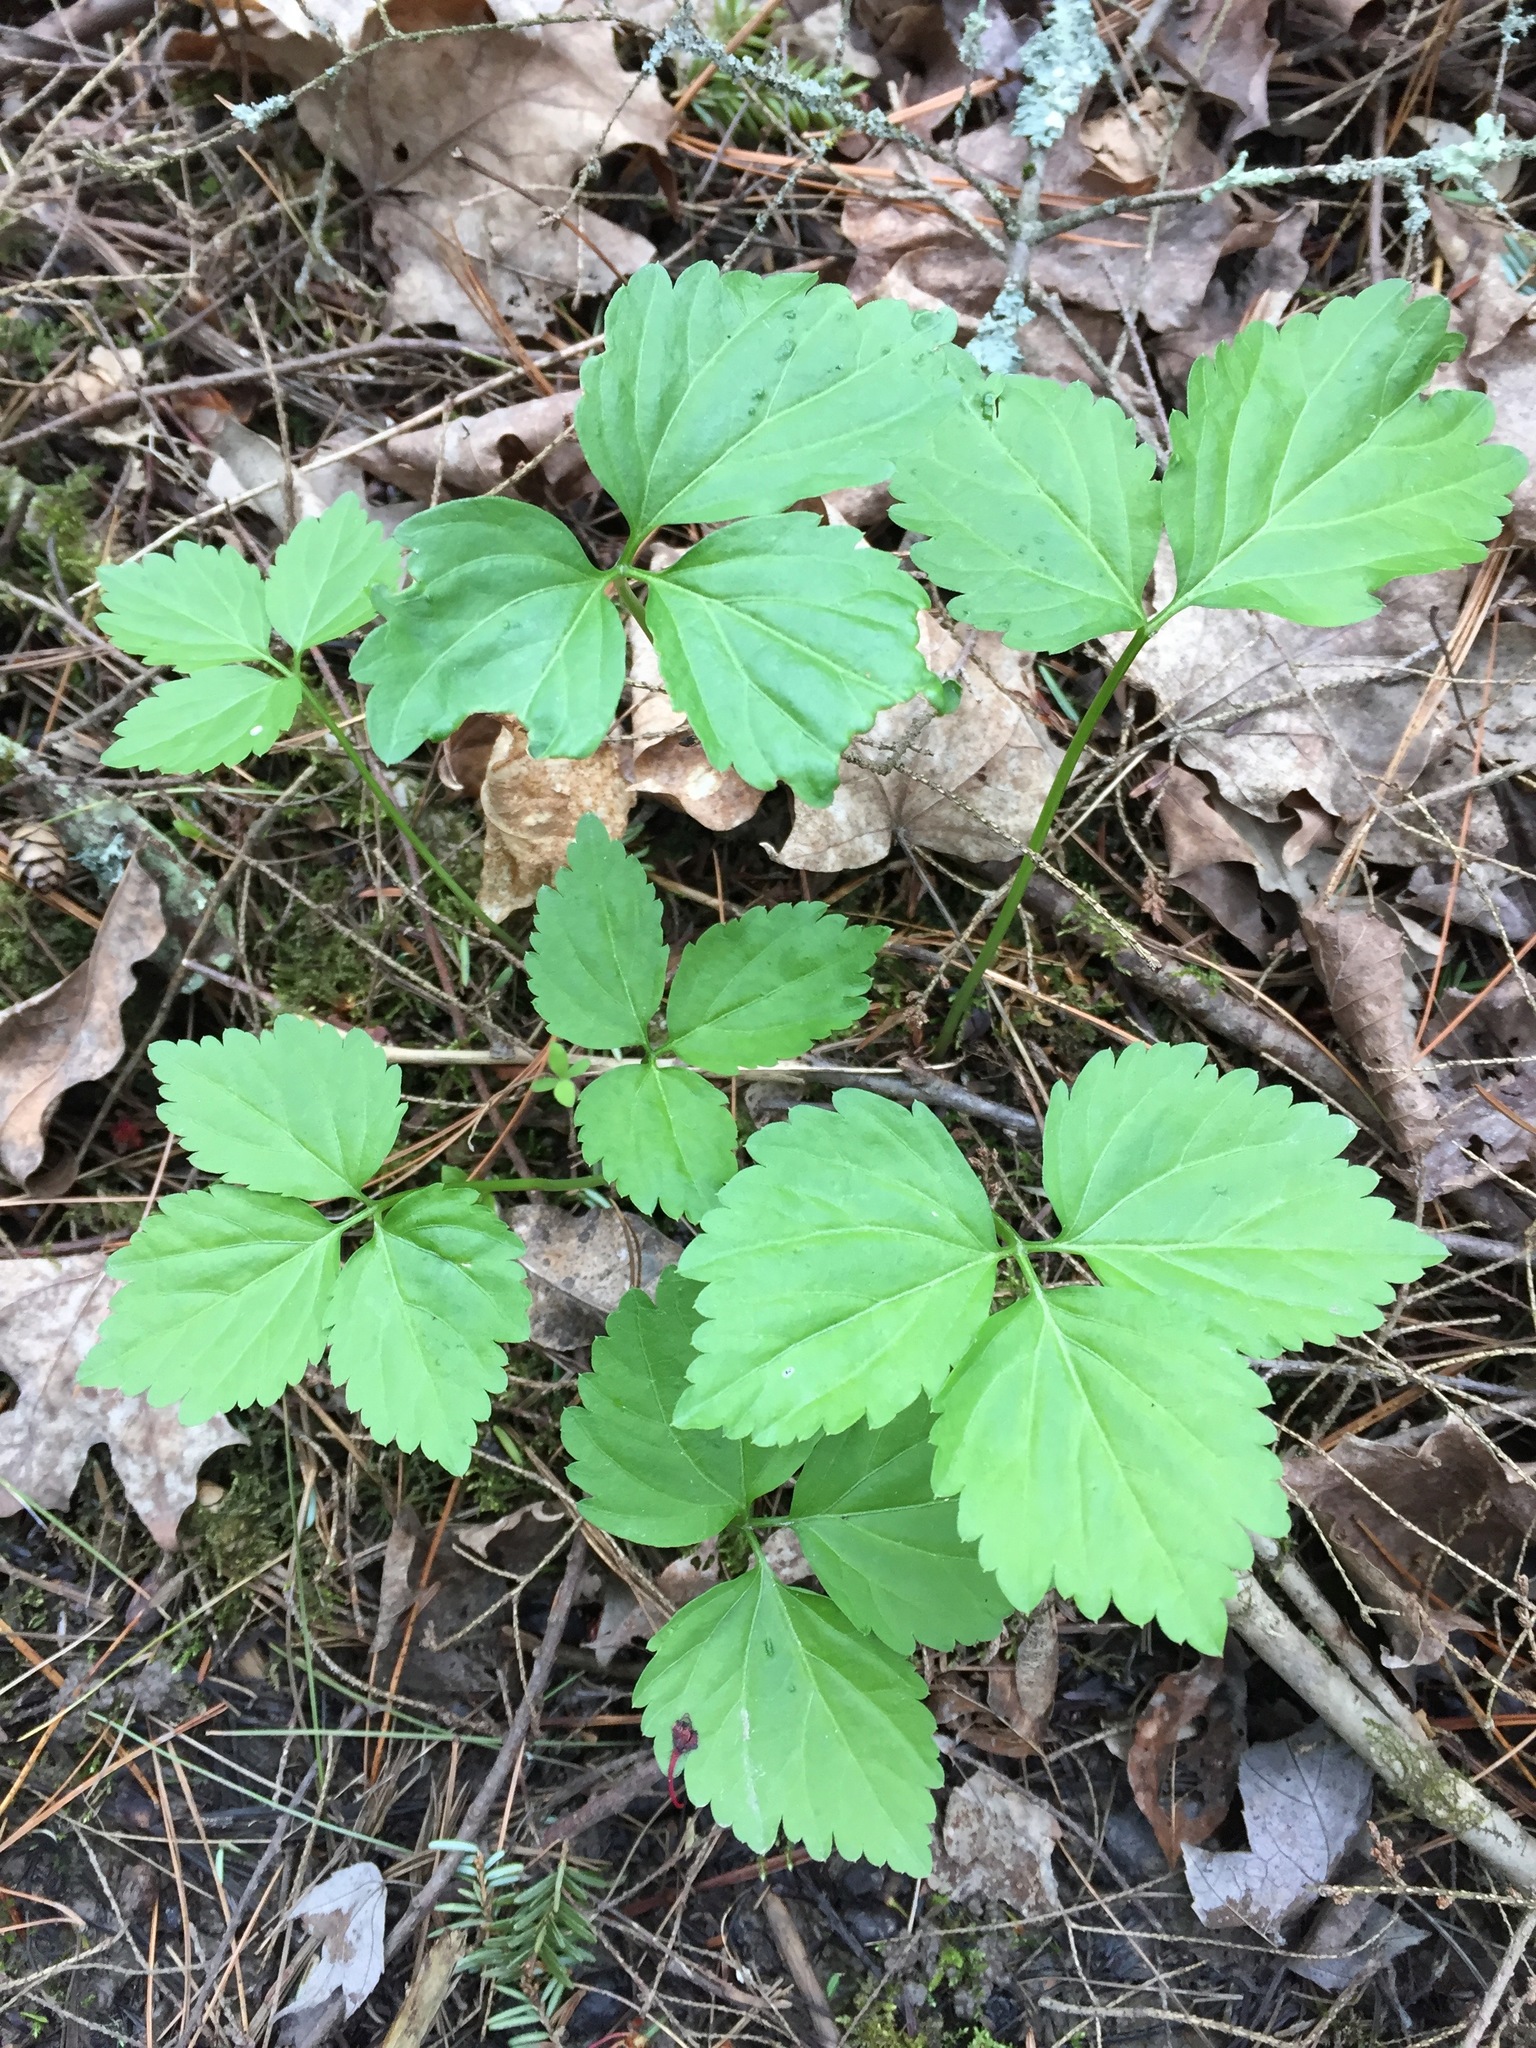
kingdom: Plantae
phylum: Tracheophyta
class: Magnoliopsida
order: Brassicales
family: Brassicaceae
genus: Cardamine
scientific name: Cardamine diphylla
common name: Broad-leaved toothwort
